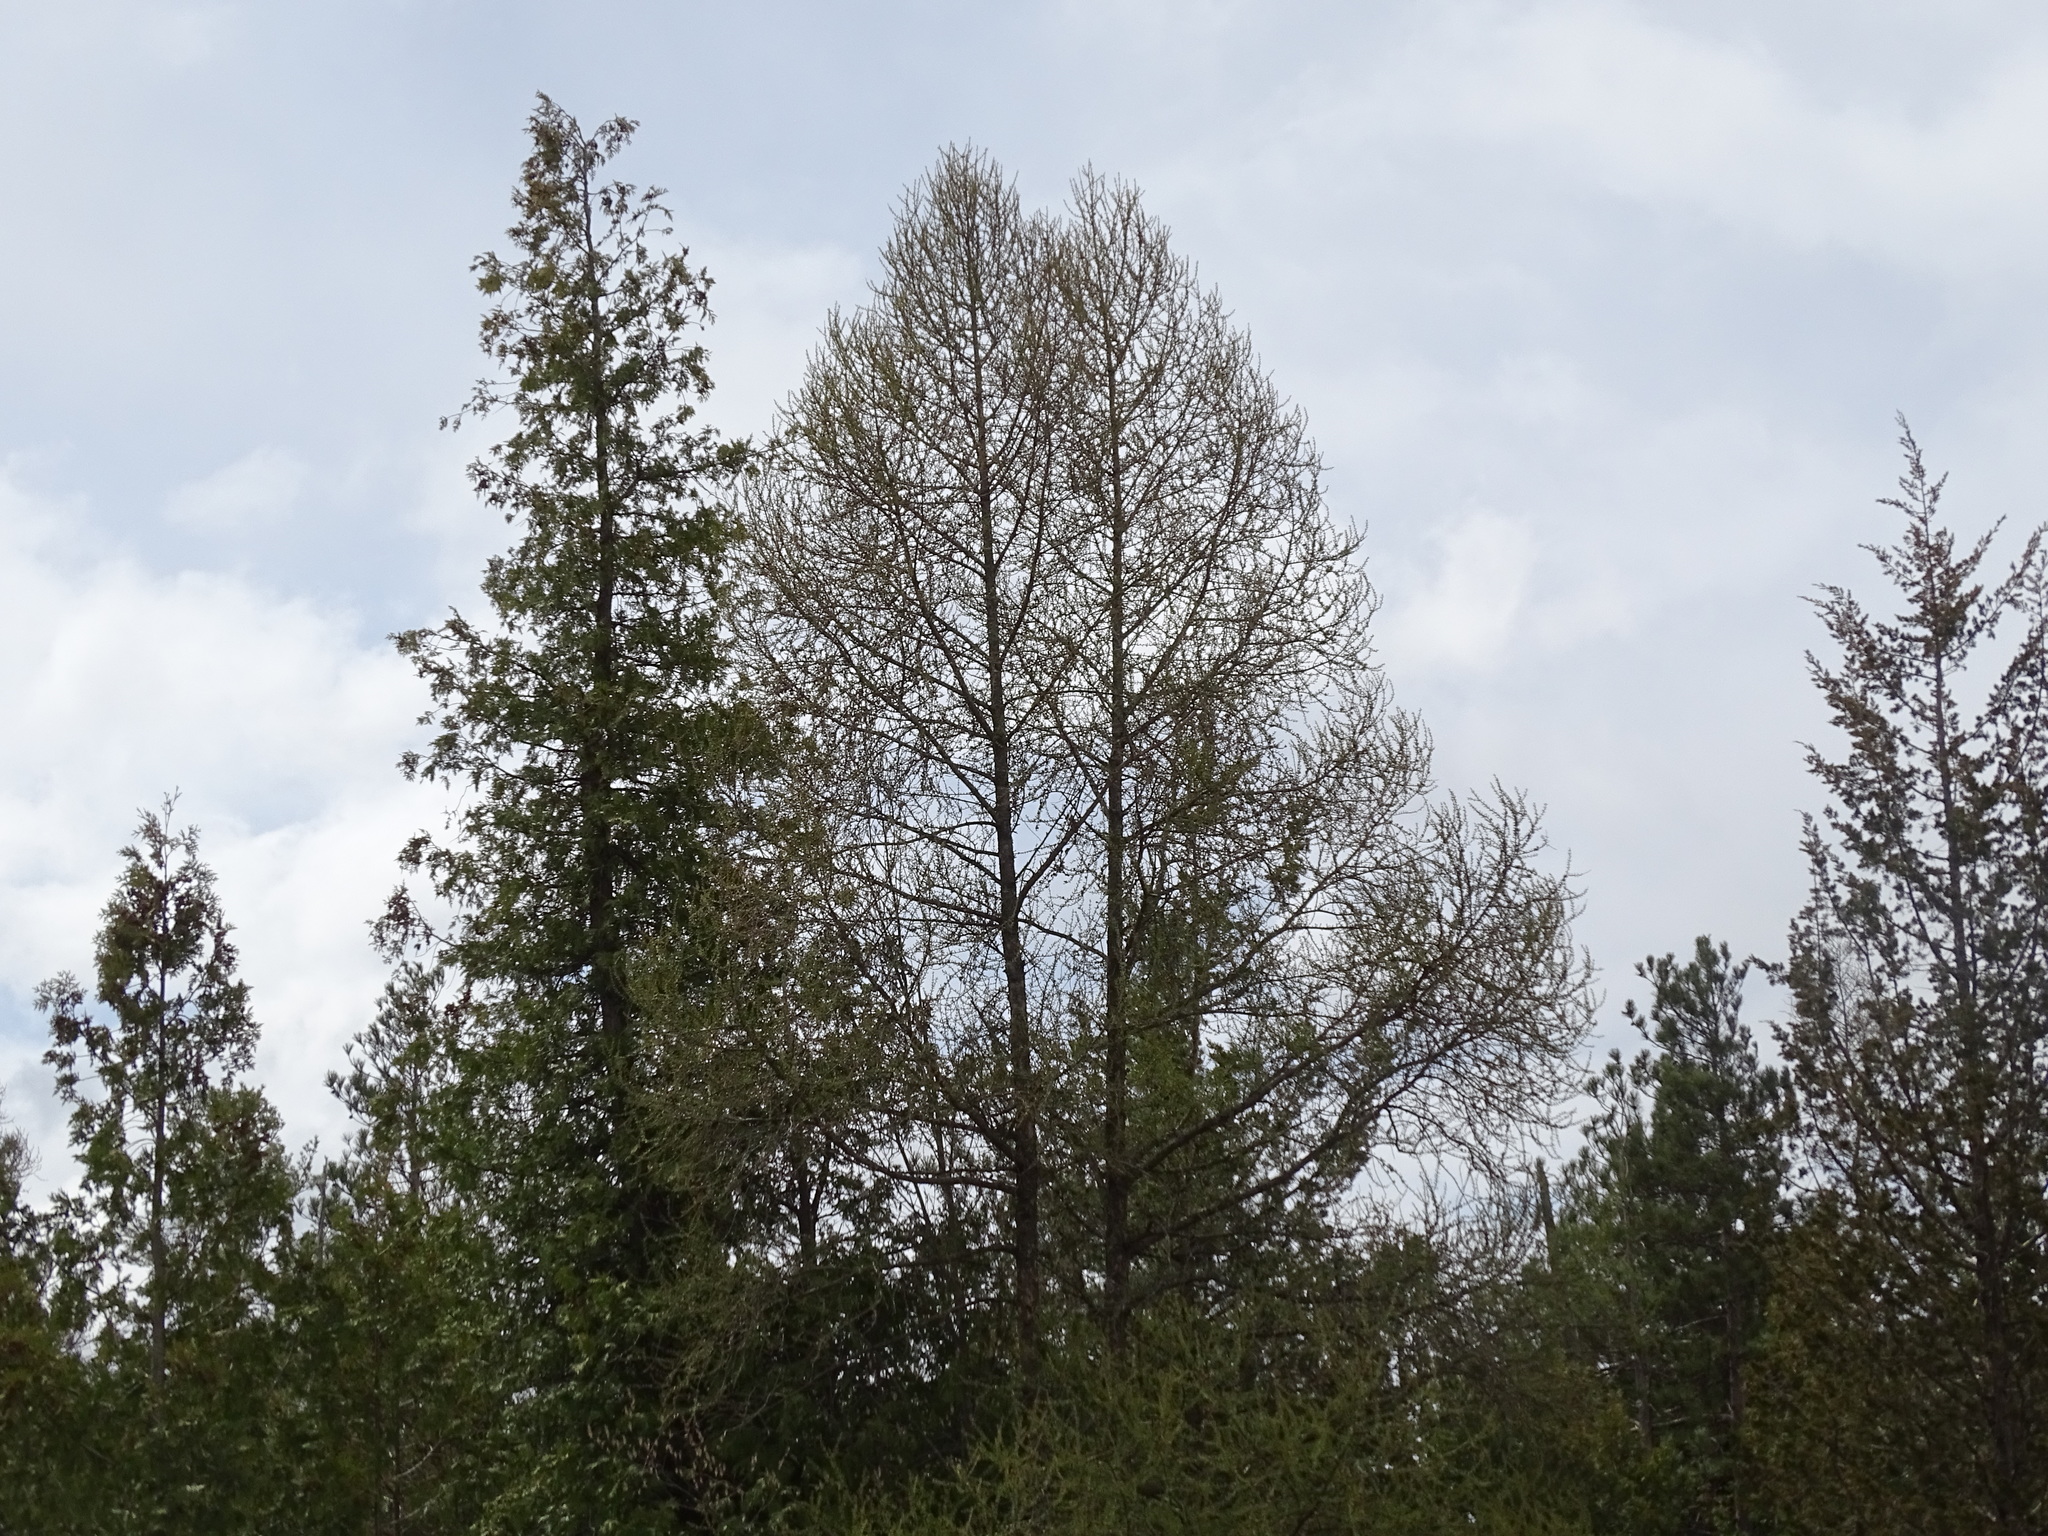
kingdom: Plantae
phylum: Tracheophyta
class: Pinopsida
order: Pinales
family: Pinaceae
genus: Larix
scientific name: Larix laricina
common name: American larch
